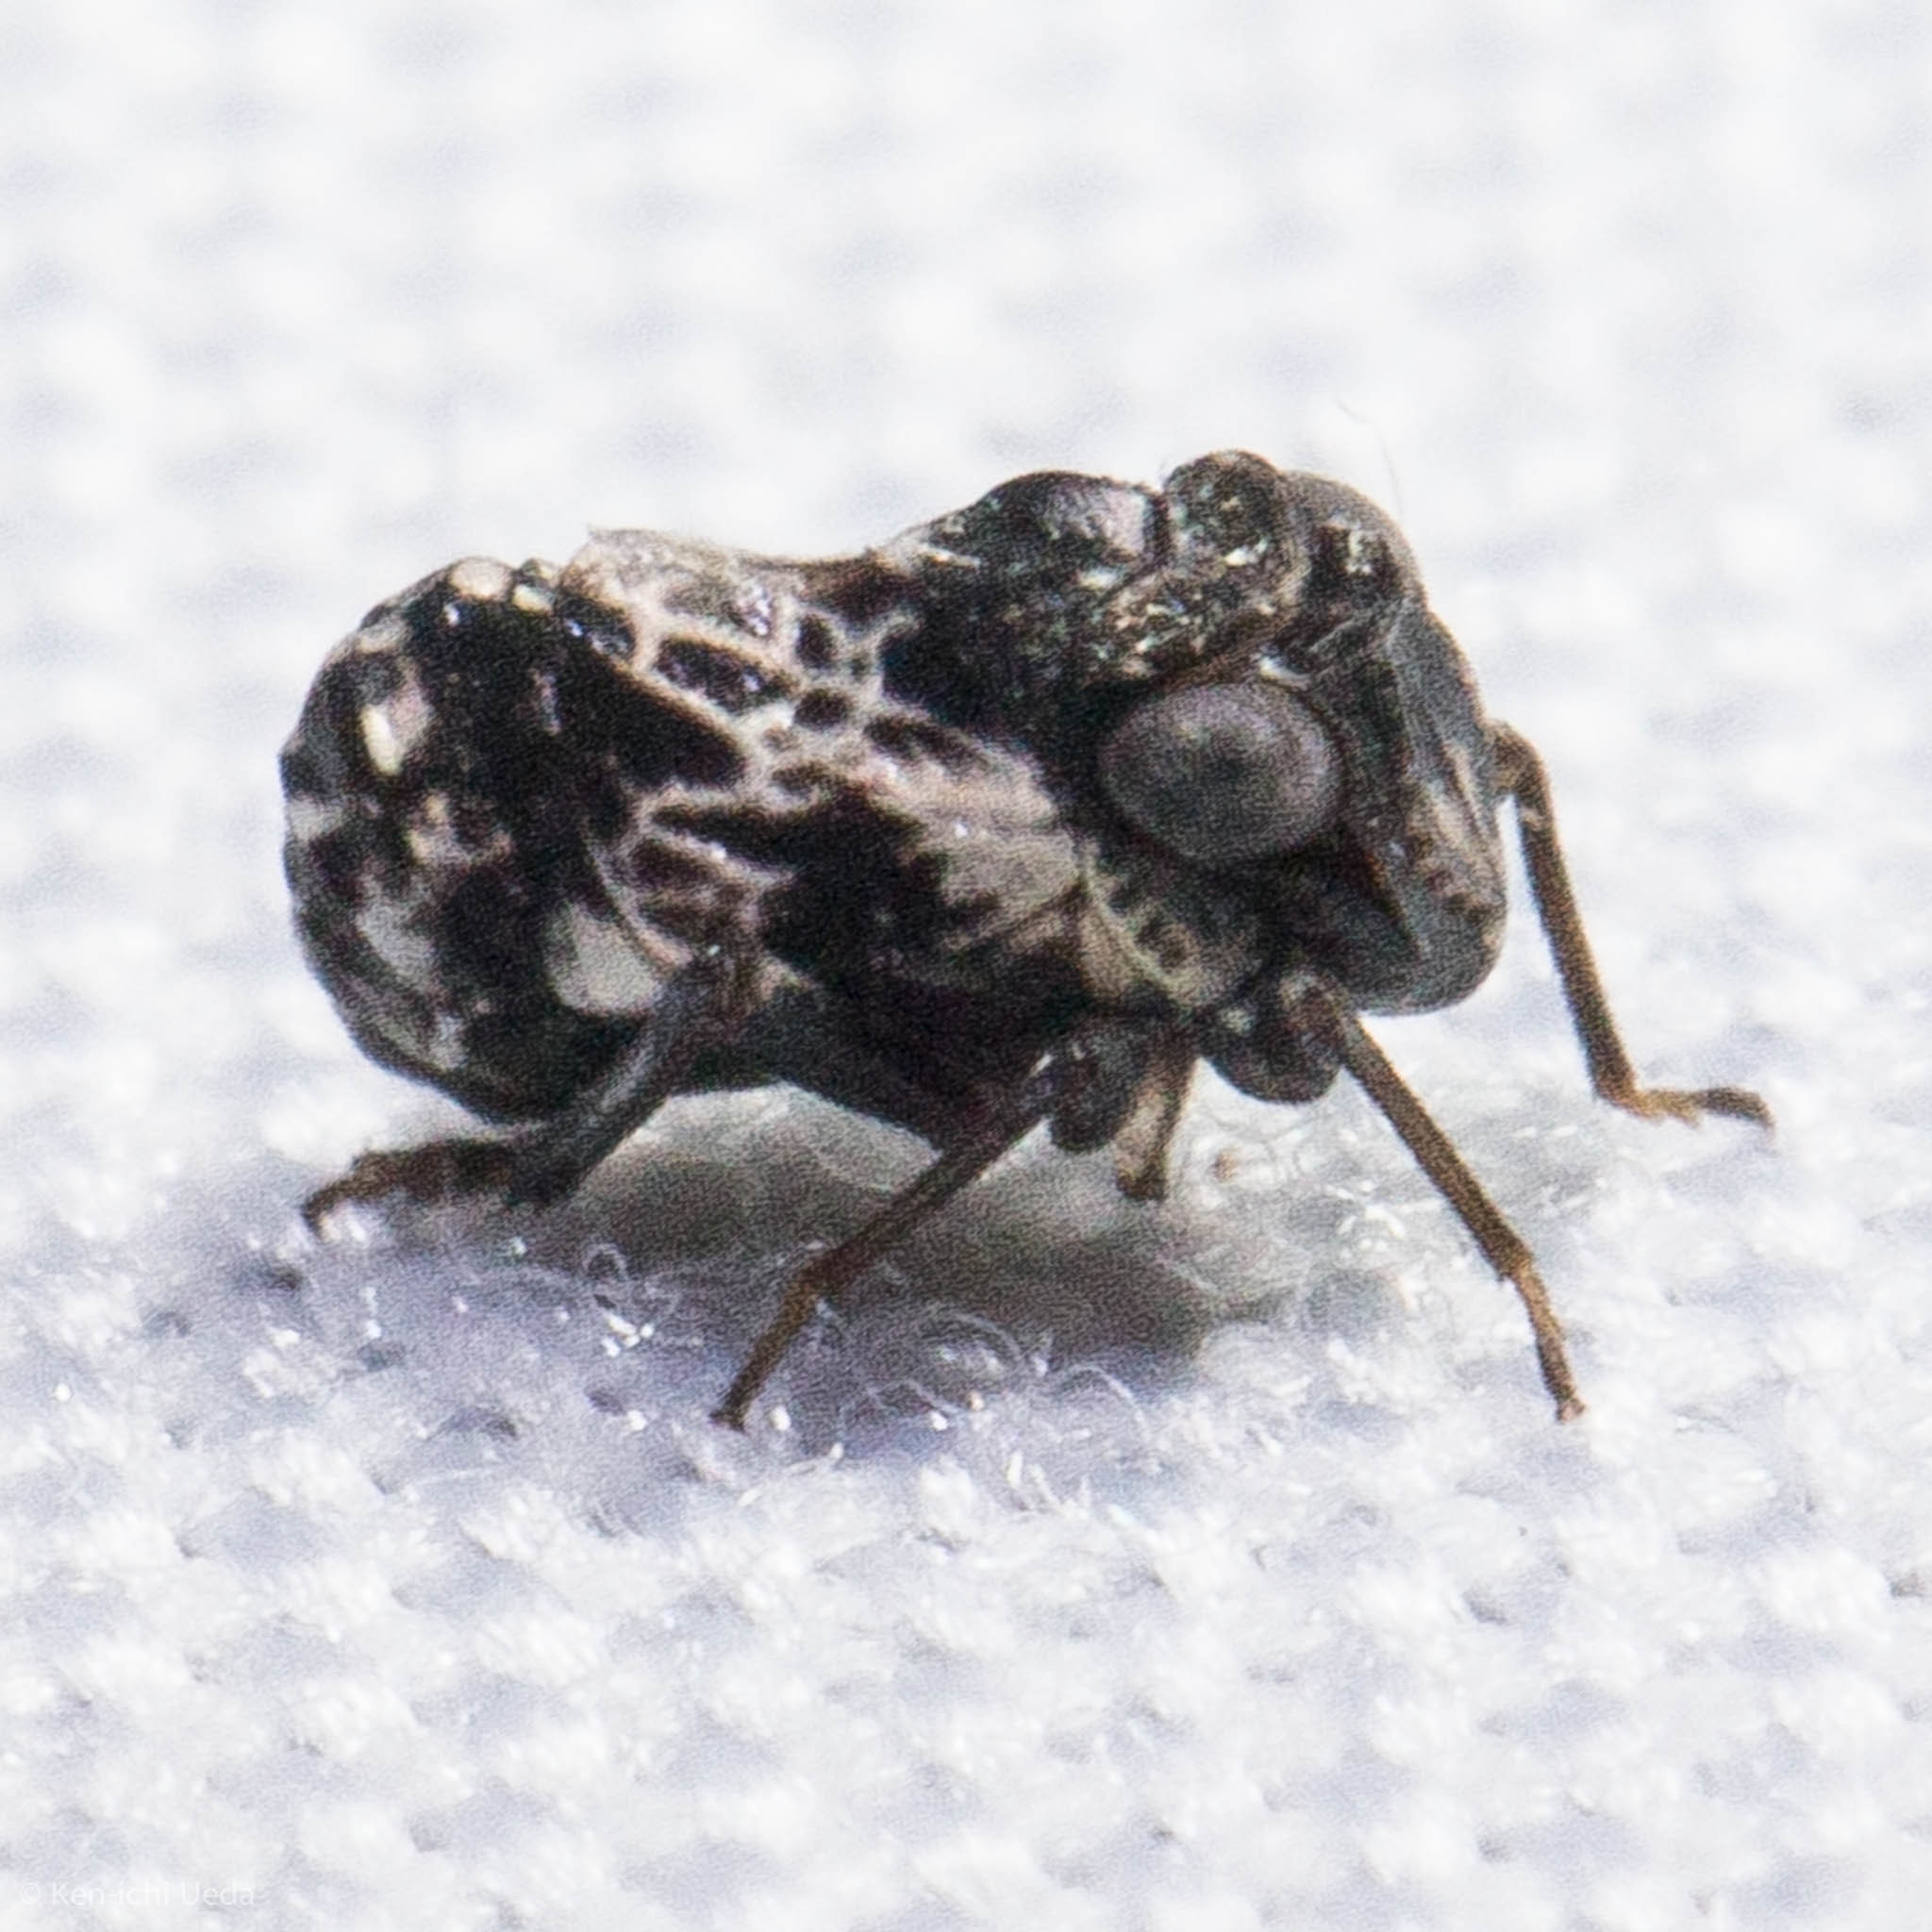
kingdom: Animalia
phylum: Arthropoda
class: Insecta
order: Hemiptera
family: Caliscelidae
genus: Bruchomorpha
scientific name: Bruchomorpha decorata
